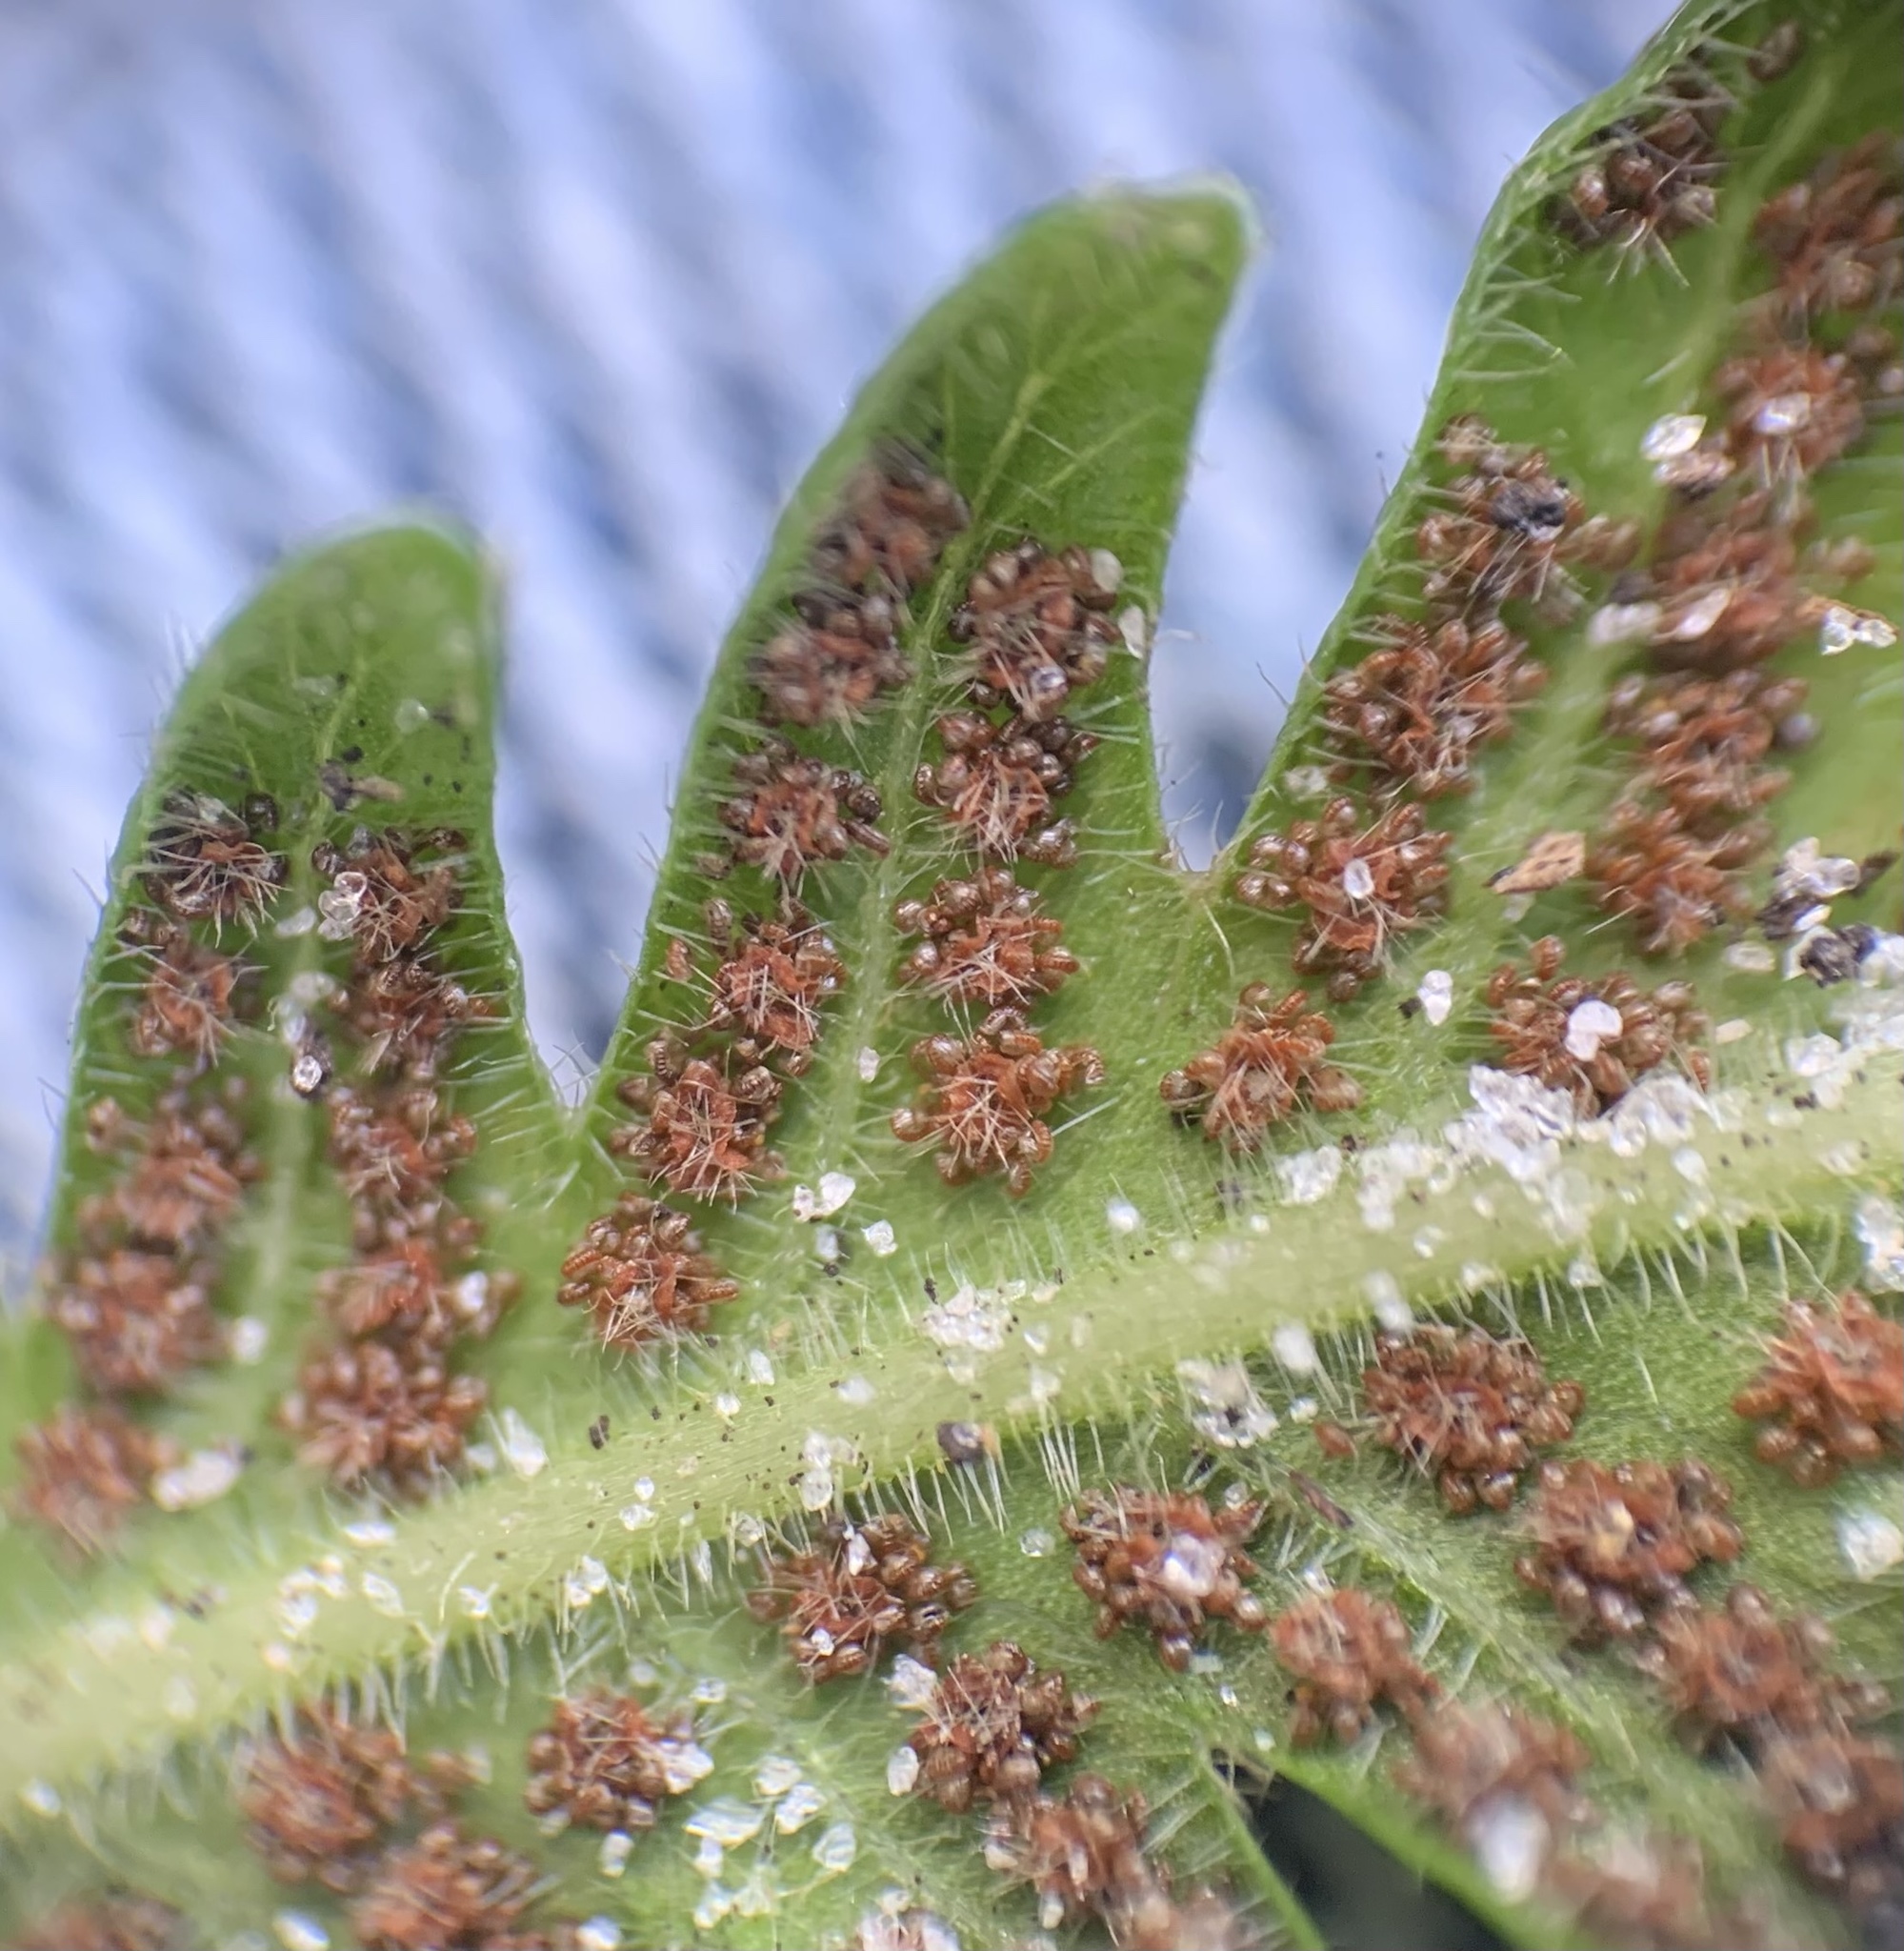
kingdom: Plantae
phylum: Tracheophyta
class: Polypodiopsida
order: Polypodiales
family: Thelypteridaceae
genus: Pelazoneuron
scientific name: Pelazoneuron kunthii
